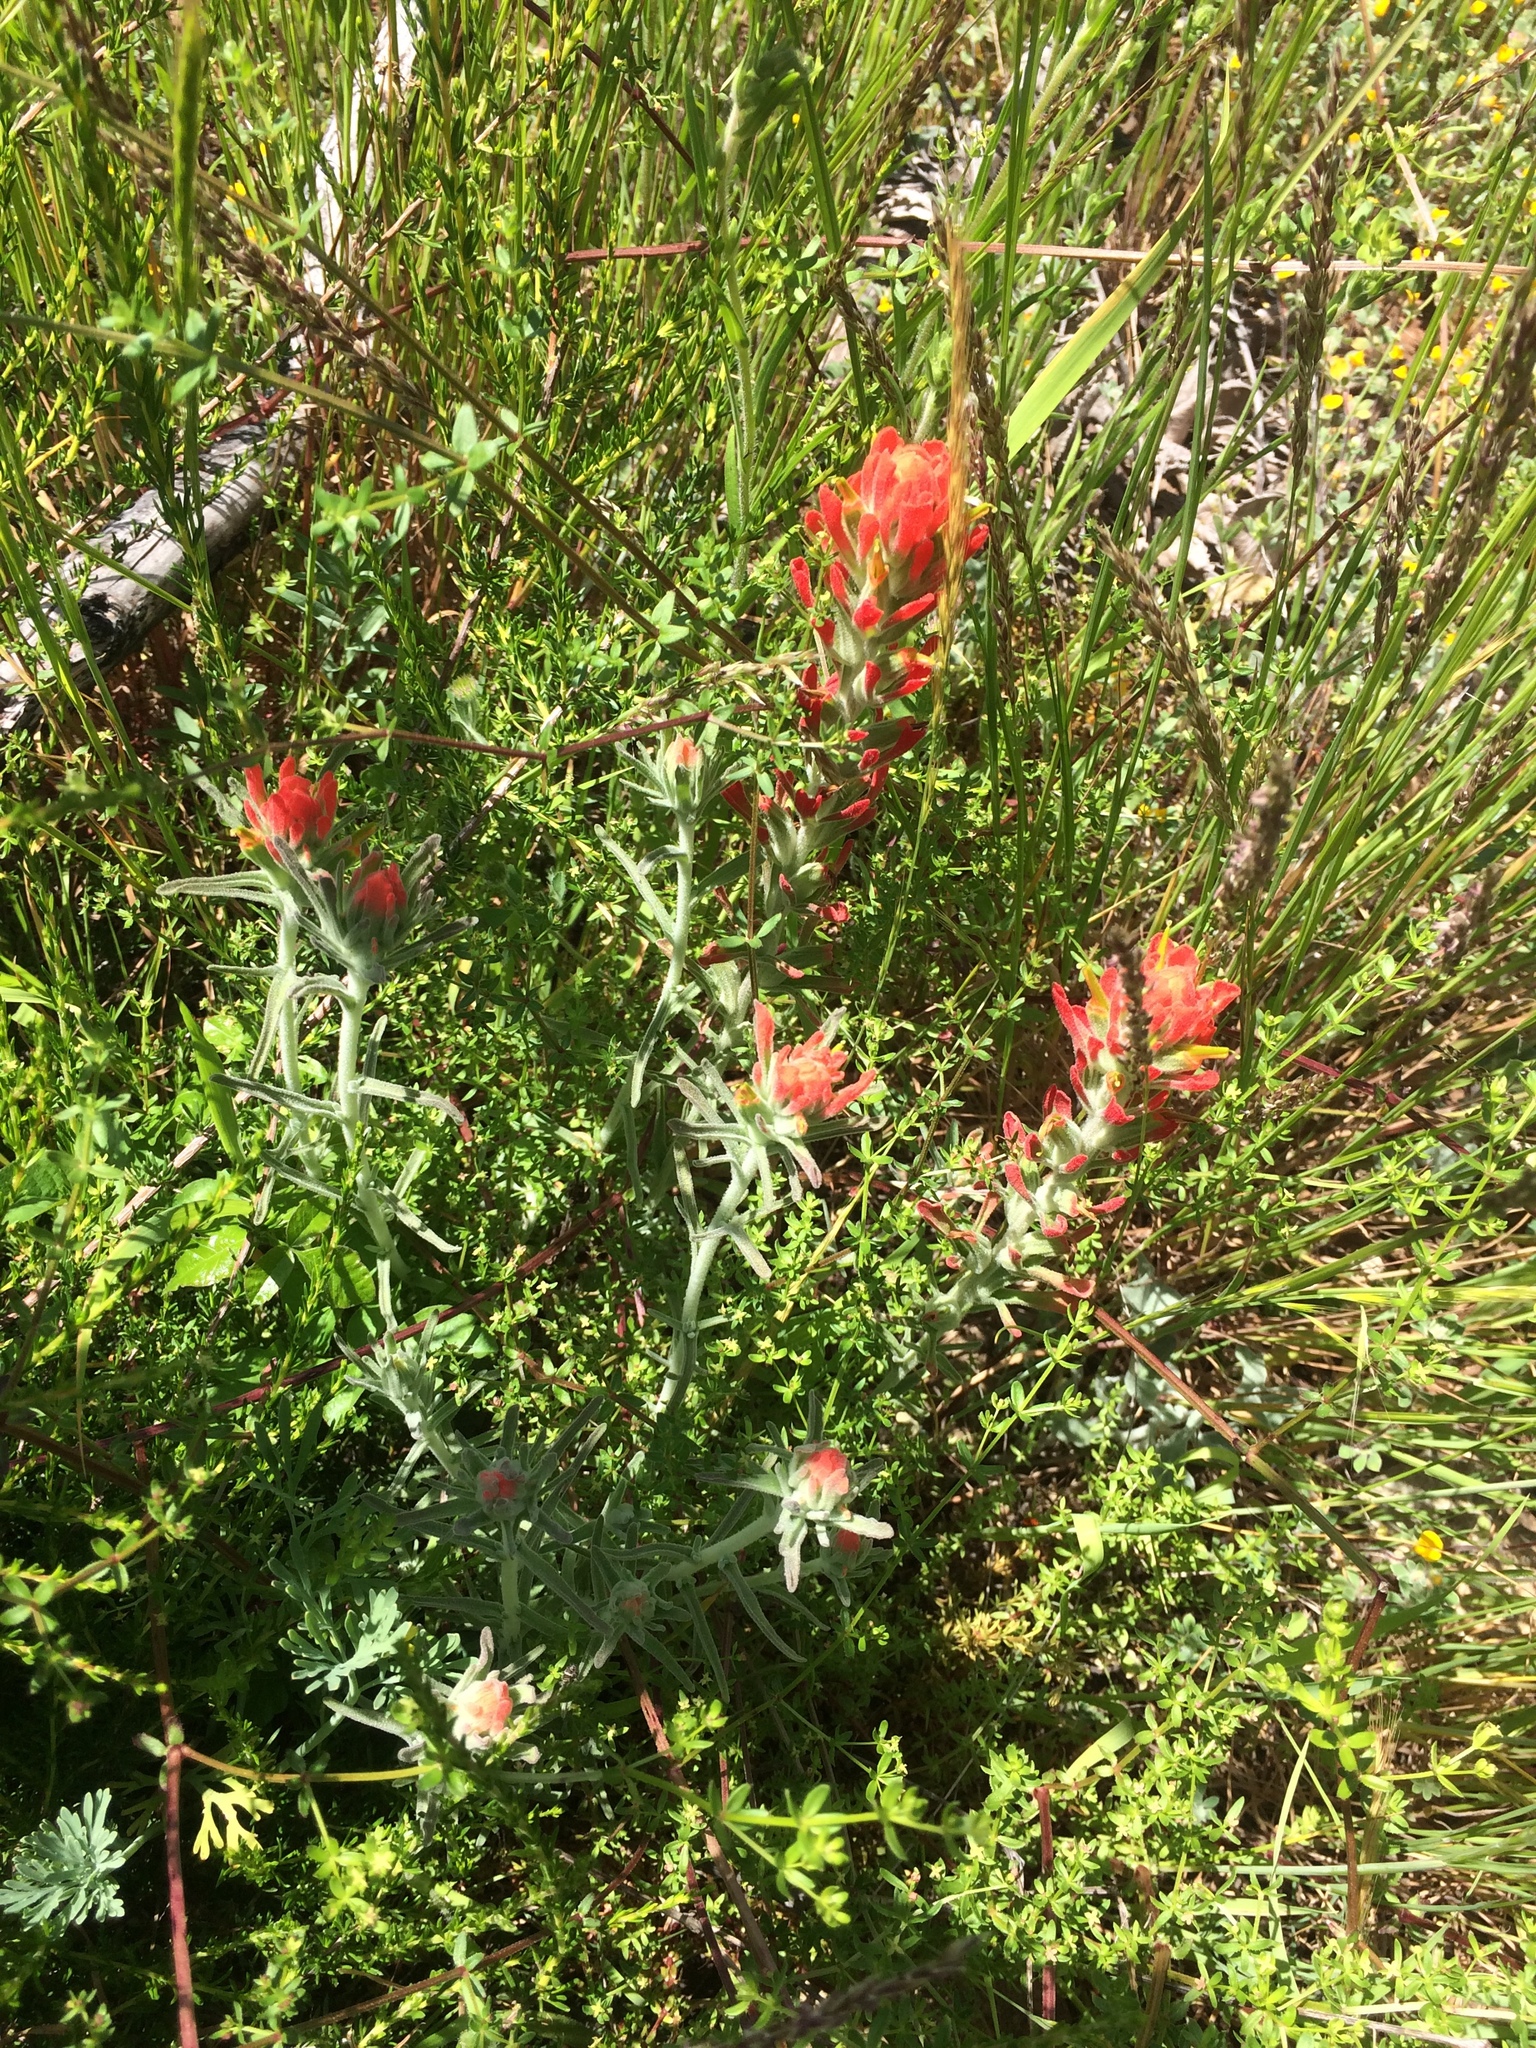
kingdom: Plantae
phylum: Tracheophyta
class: Magnoliopsida
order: Lamiales
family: Orobanchaceae
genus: Castilleja
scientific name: Castilleja foliolosa
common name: Woolly indian paintbrush
